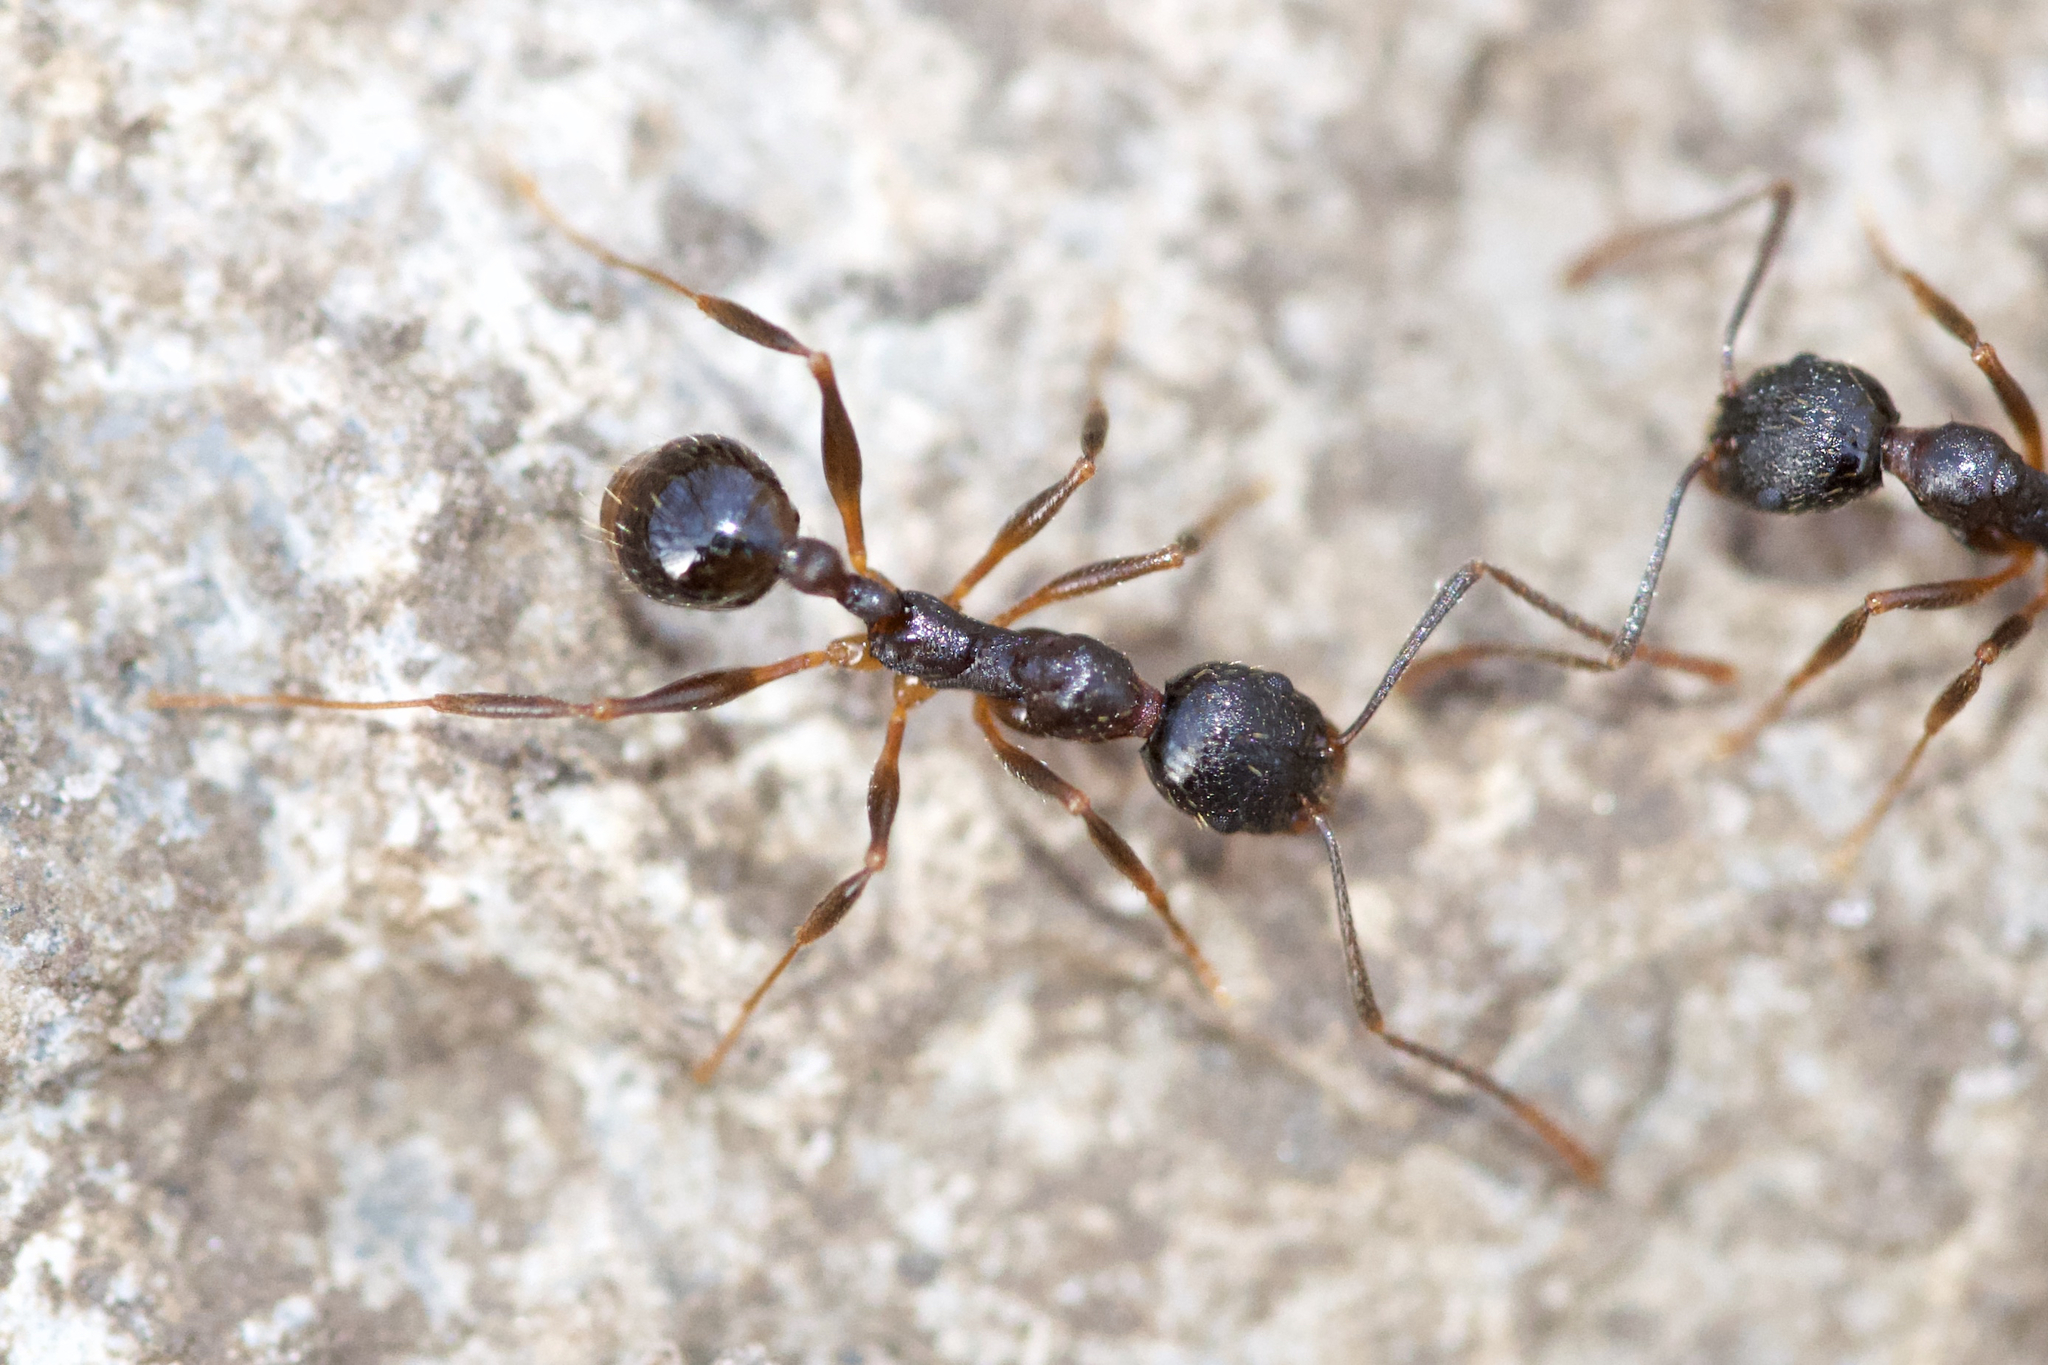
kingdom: Animalia
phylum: Arthropoda
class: Insecta
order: Hymenoptera
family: Formicidae
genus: Aphaenogaster
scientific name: Aphaenogaster picea
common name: Pitch-black collared ant
